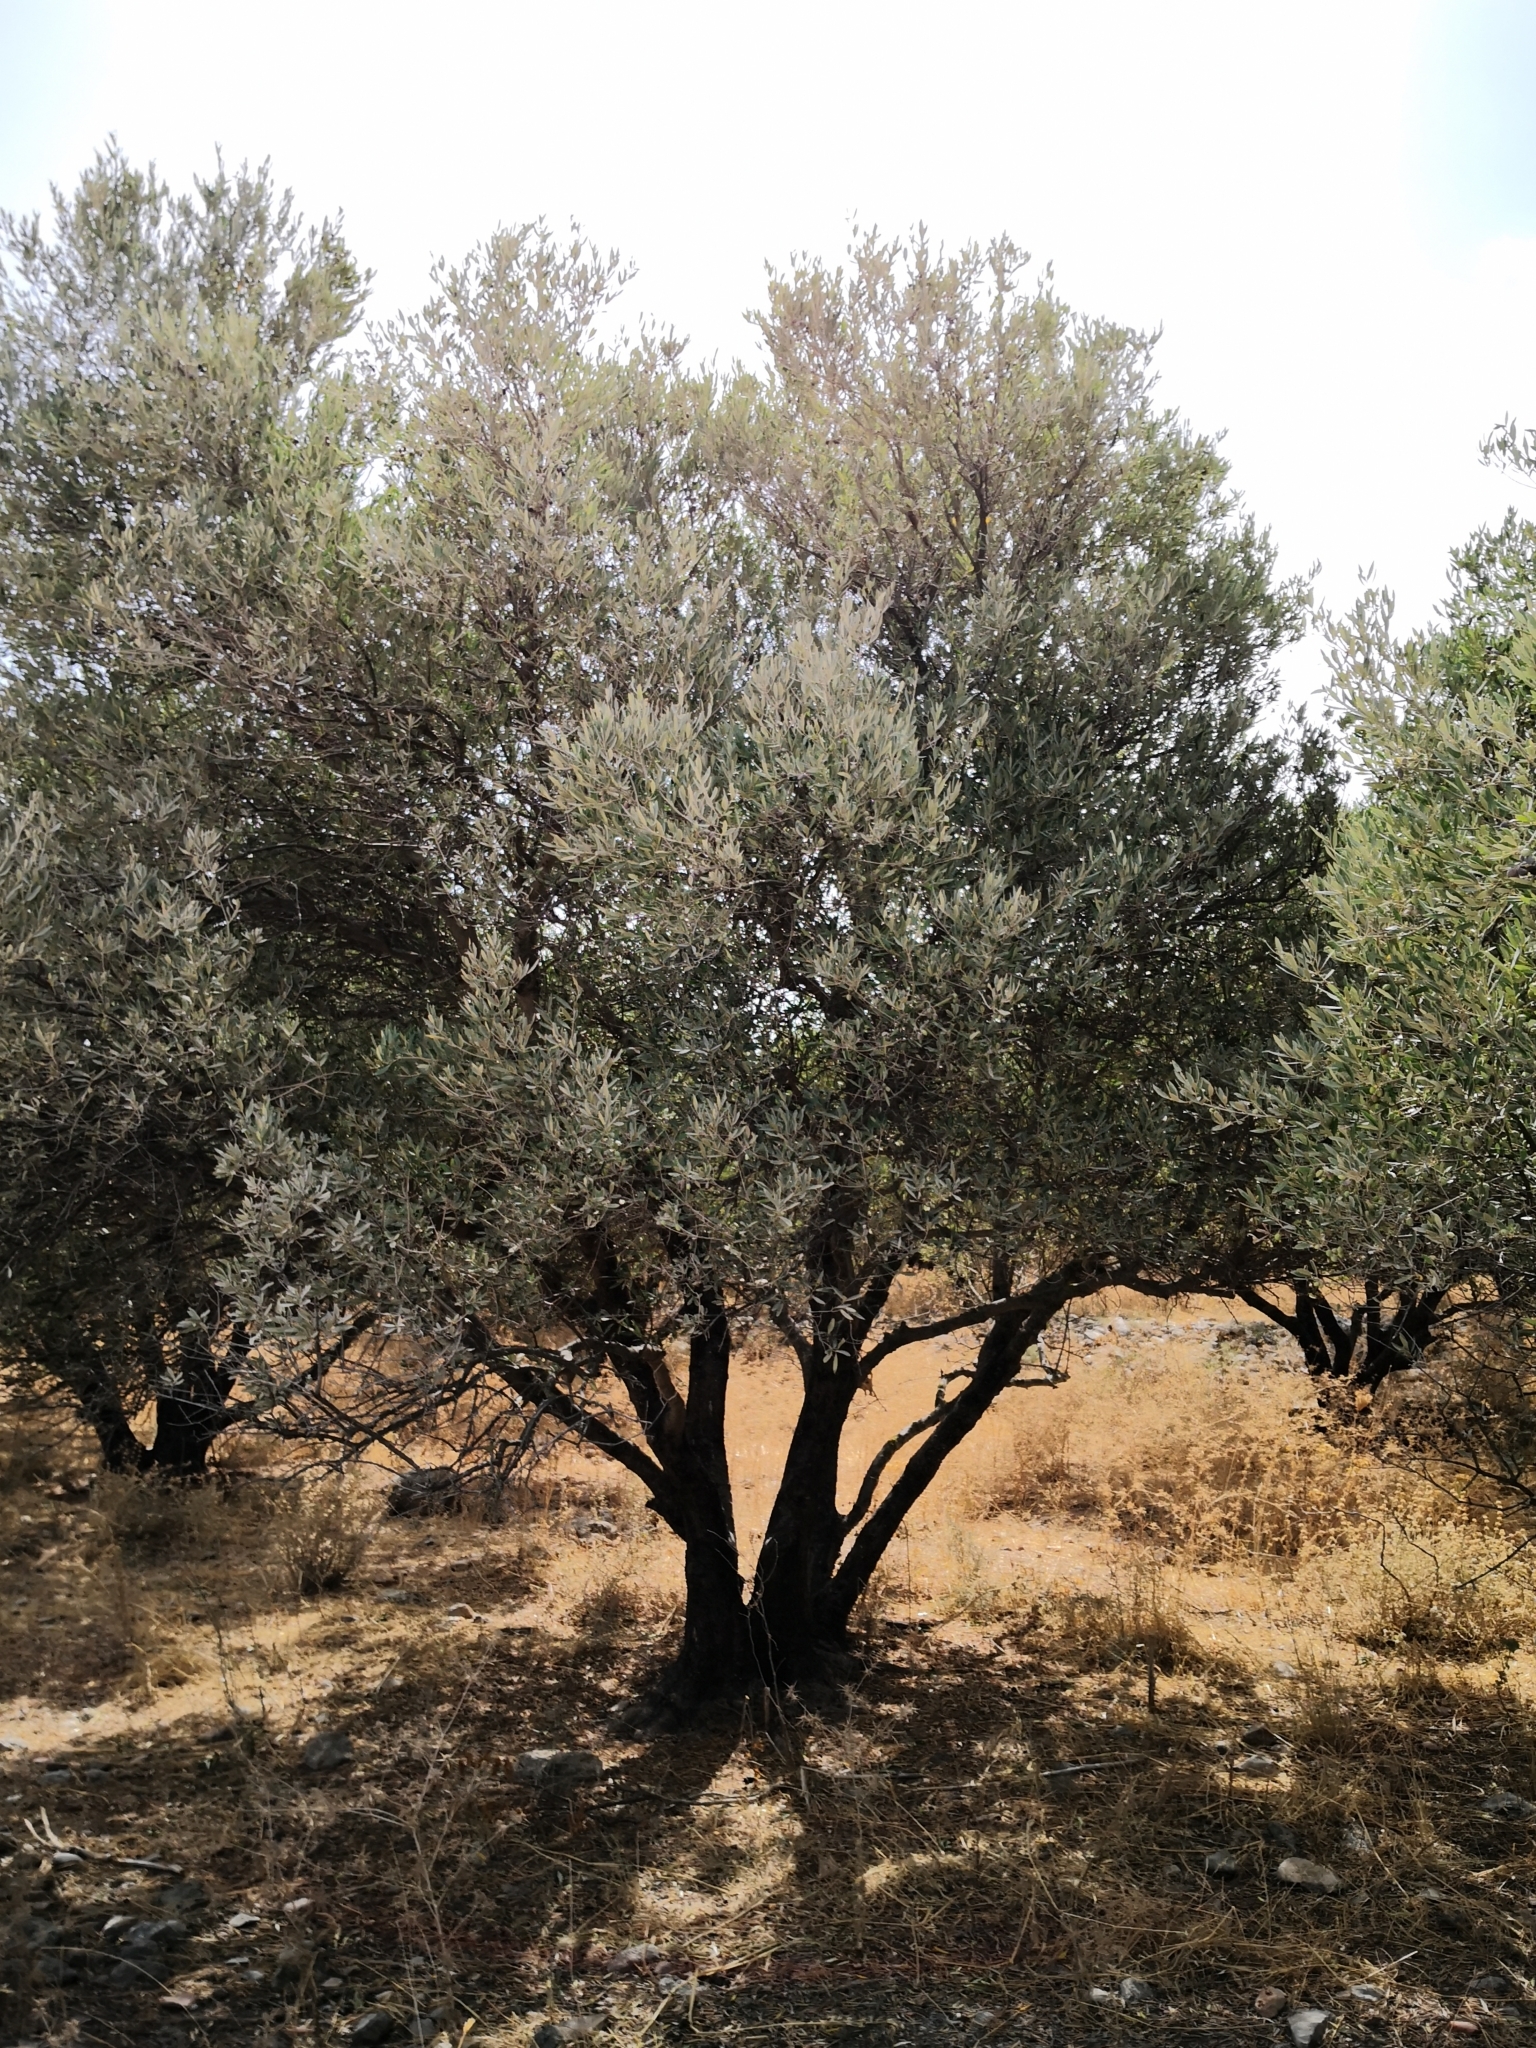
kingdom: Plantae
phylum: Tracheophyta
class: Magnoliopsida
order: Lamiales
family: Oleaceae
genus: Olea
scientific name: Olea europaea
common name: Olive
